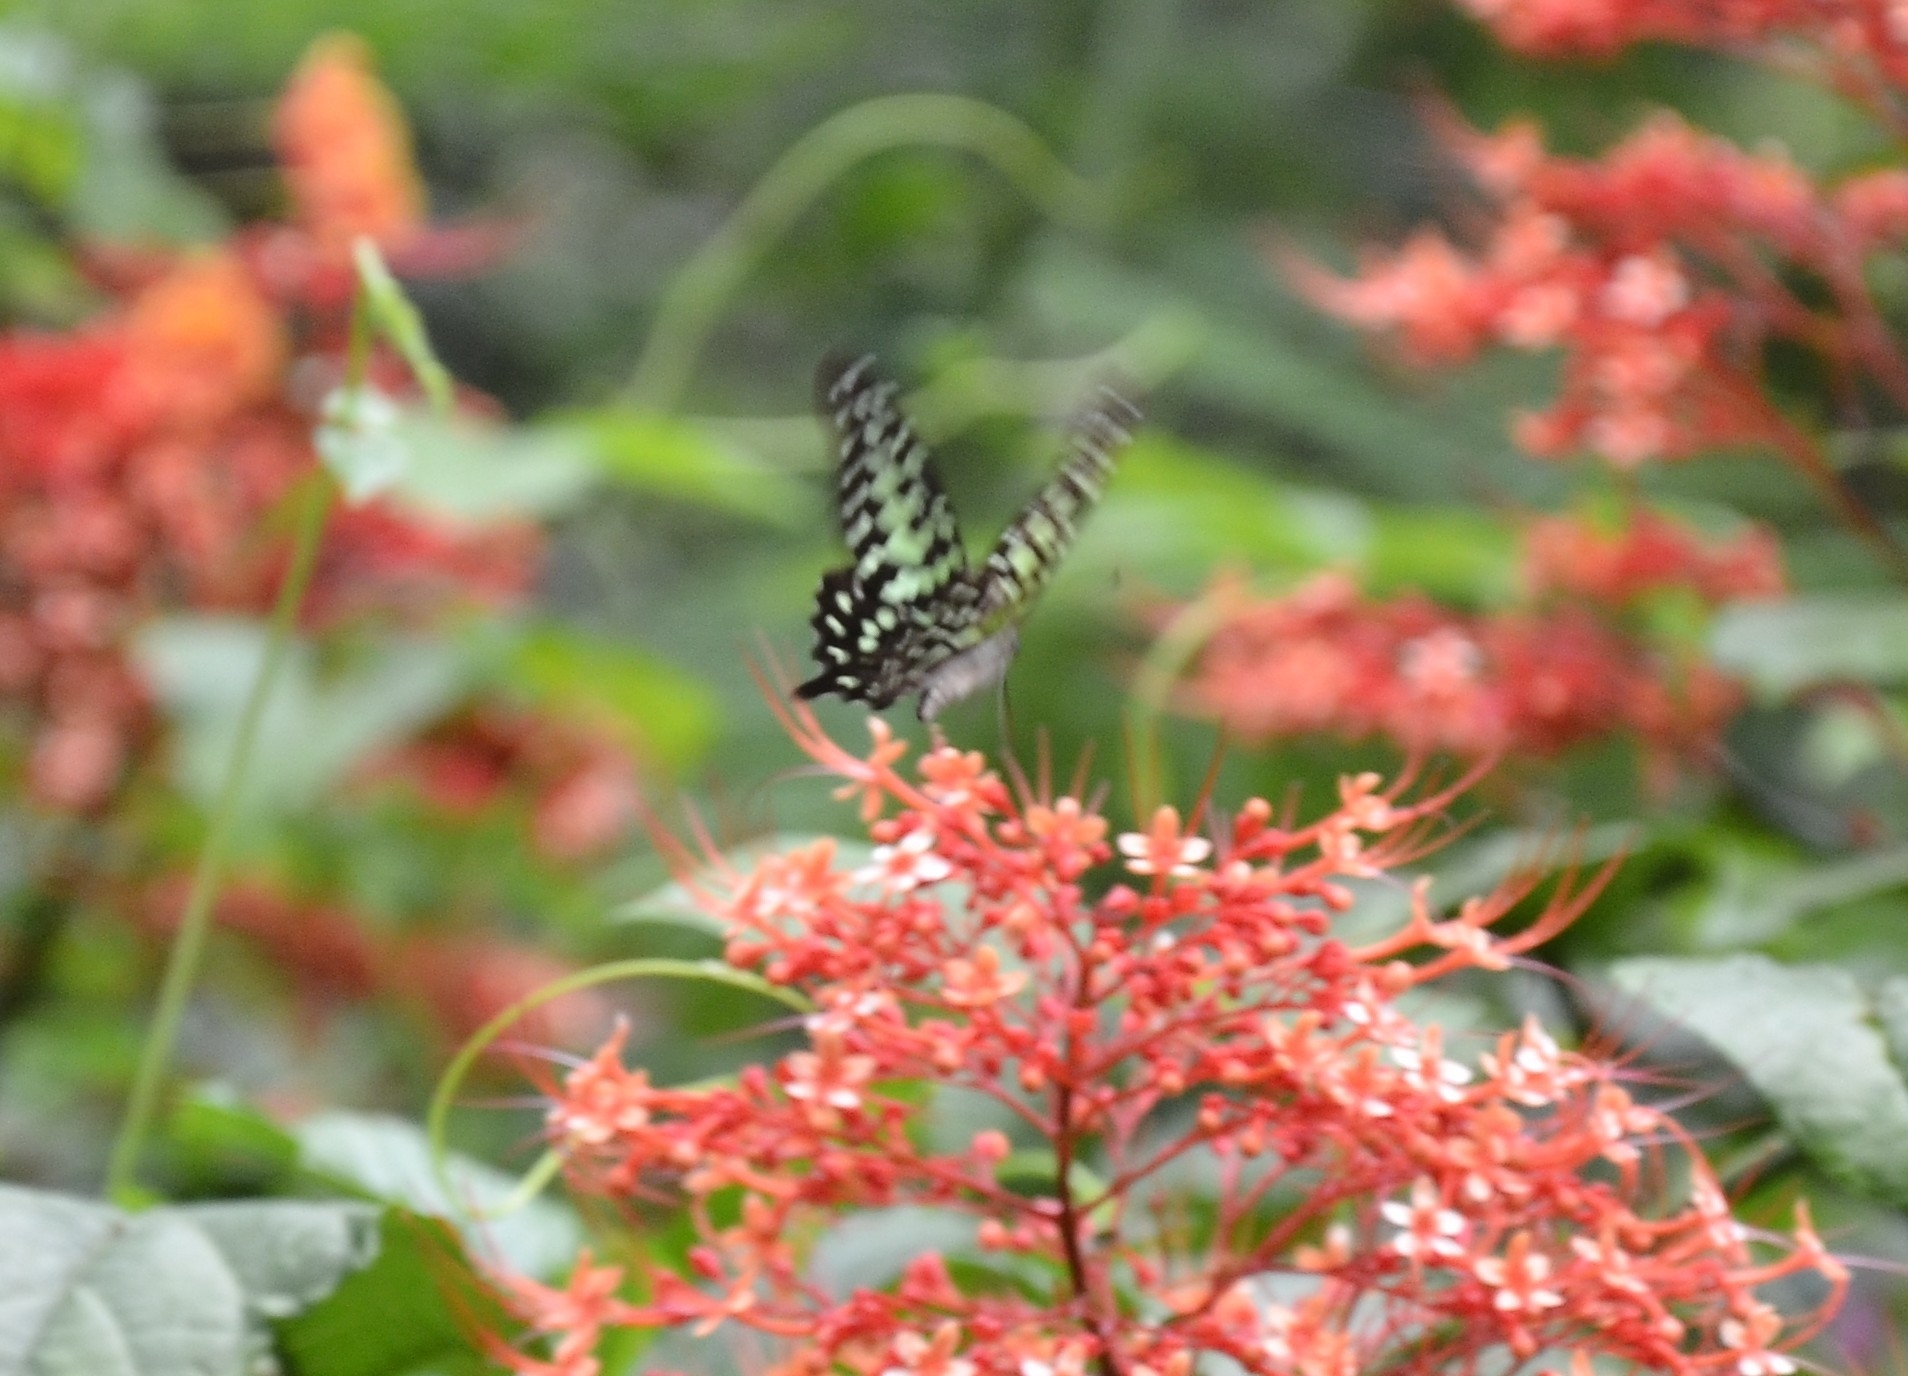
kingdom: Animalia
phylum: Arthropoda
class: Insecta
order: Lepidoptera
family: Papilionidae
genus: Graphium
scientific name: Graphium agamemnon
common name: Tailed jay
